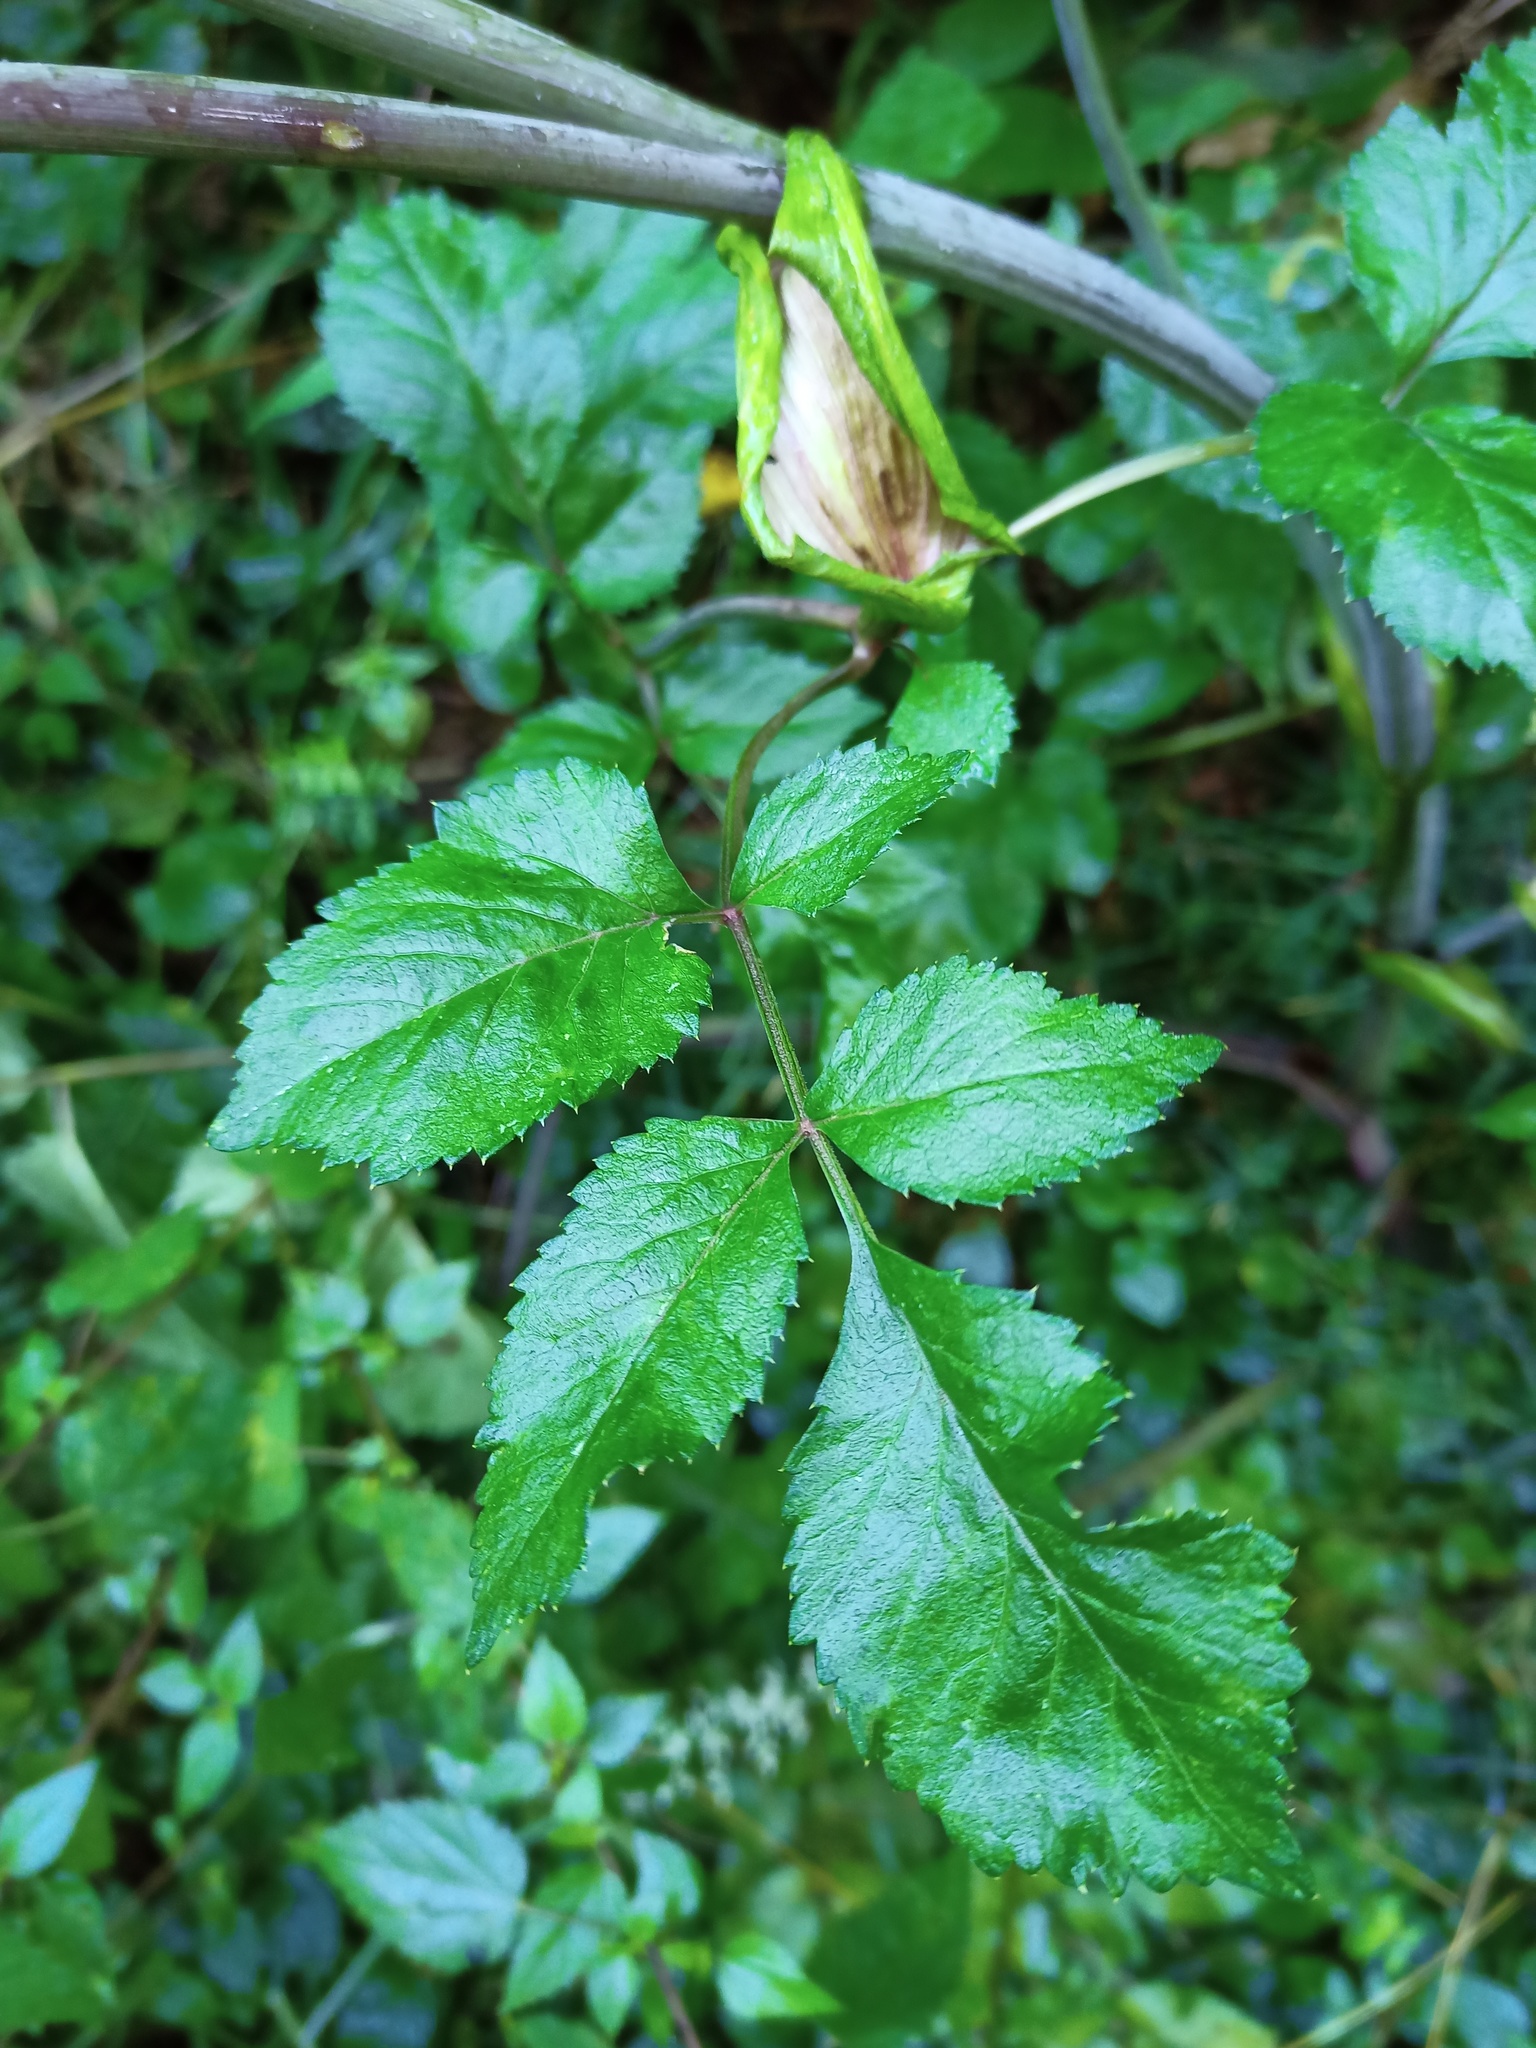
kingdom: Plantae
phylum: Tracheophyta
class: Magnoliopsida
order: Apiales
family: Apiaceae
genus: Angelica
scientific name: Angelica sylvestris
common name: Wild angelica
